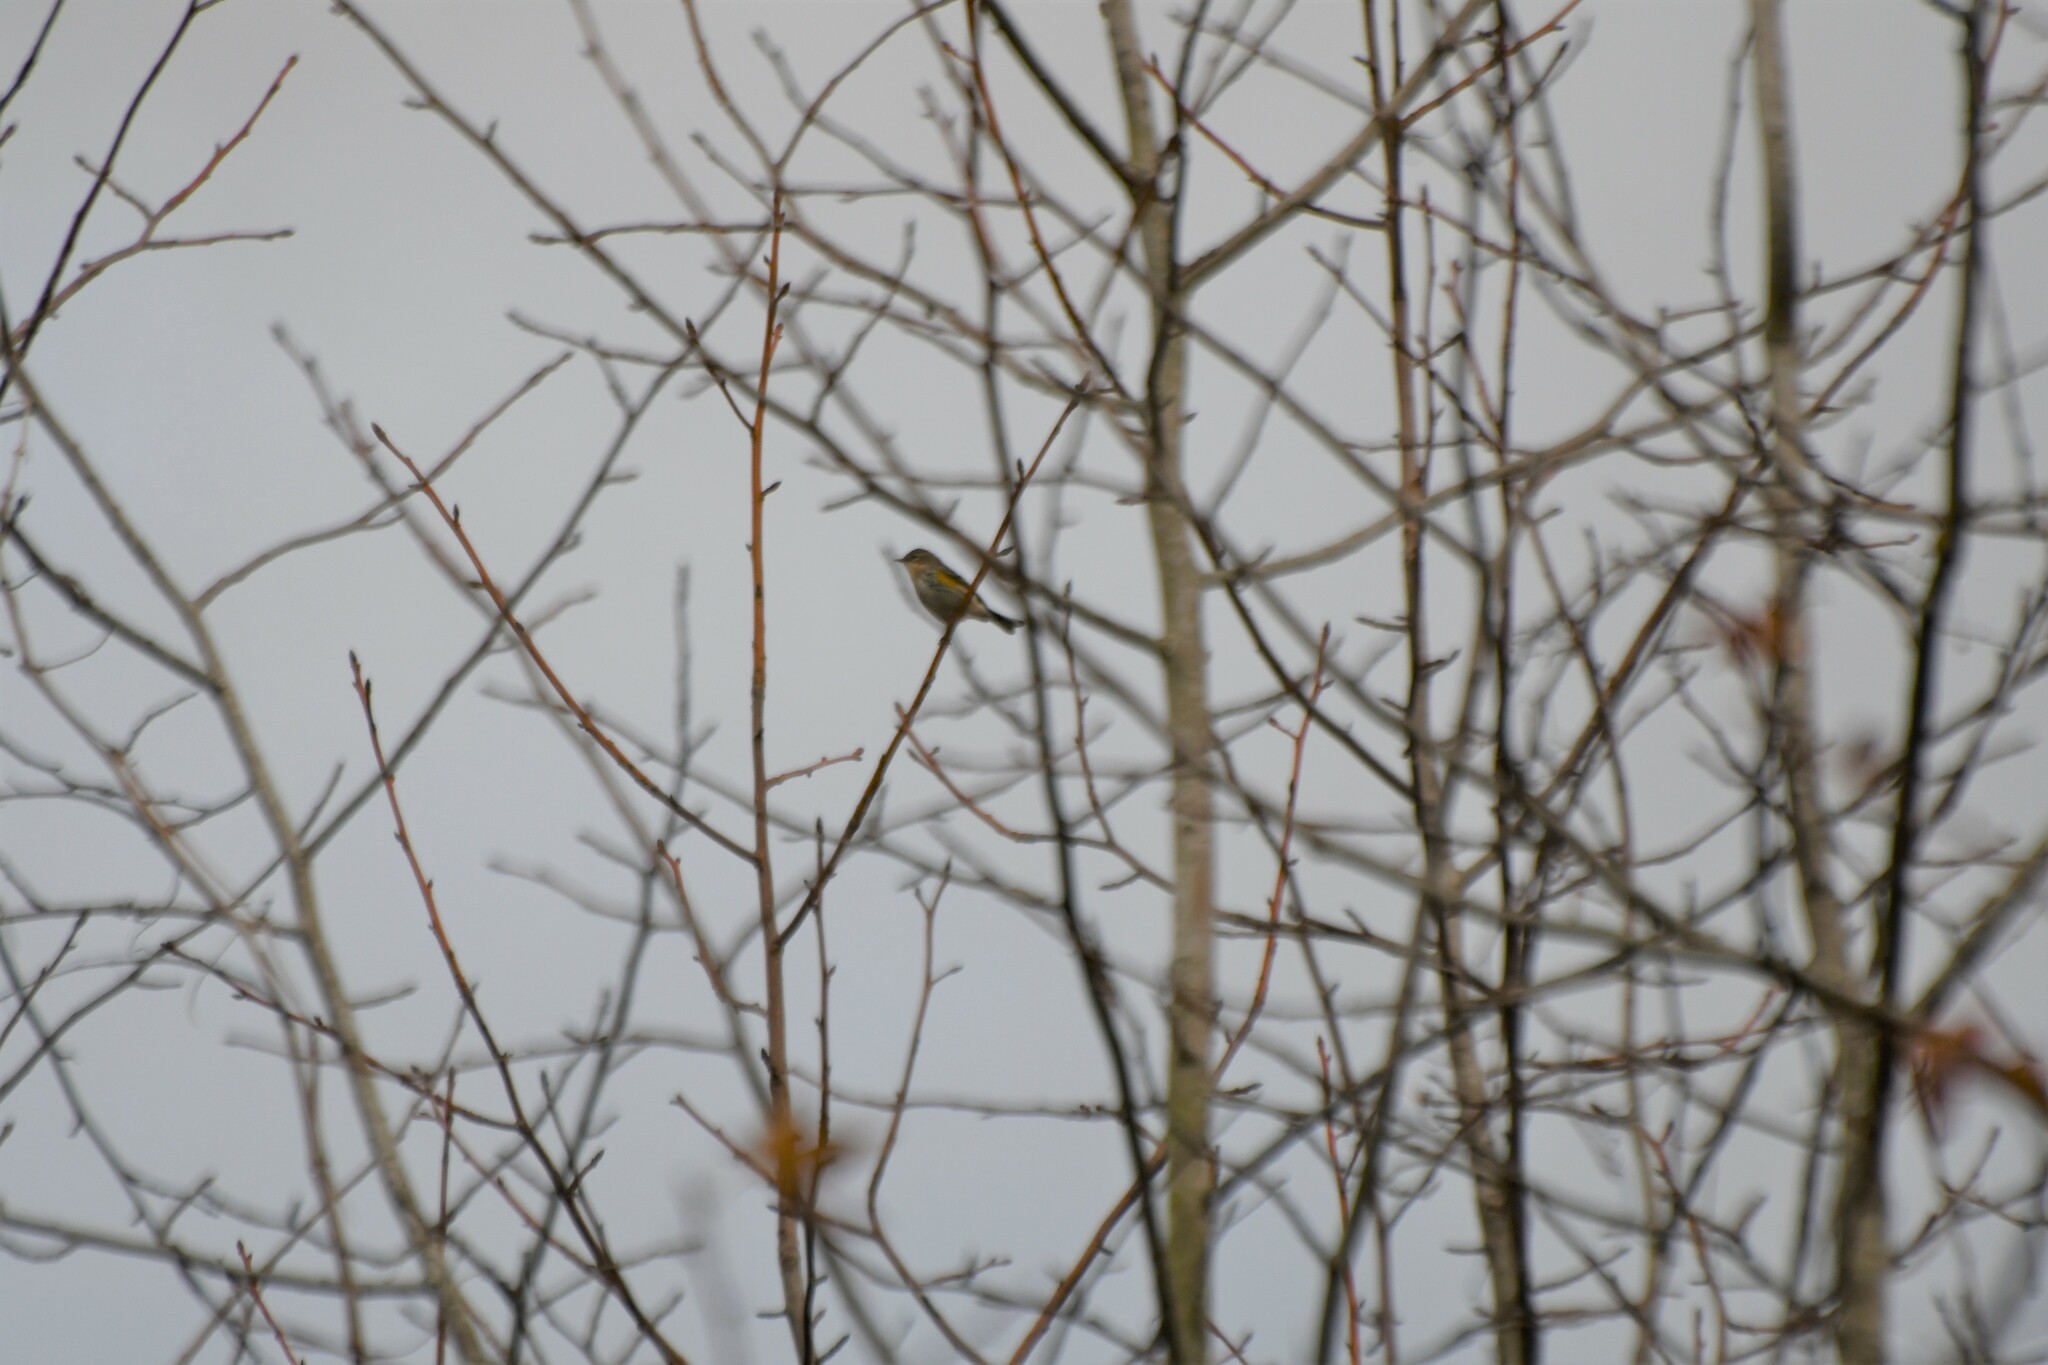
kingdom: Animalia
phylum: Chordata
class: Aves
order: Passeriformes
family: Parulidae
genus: Setophaga
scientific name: Setophaga coronata
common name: Myrtle warbler
